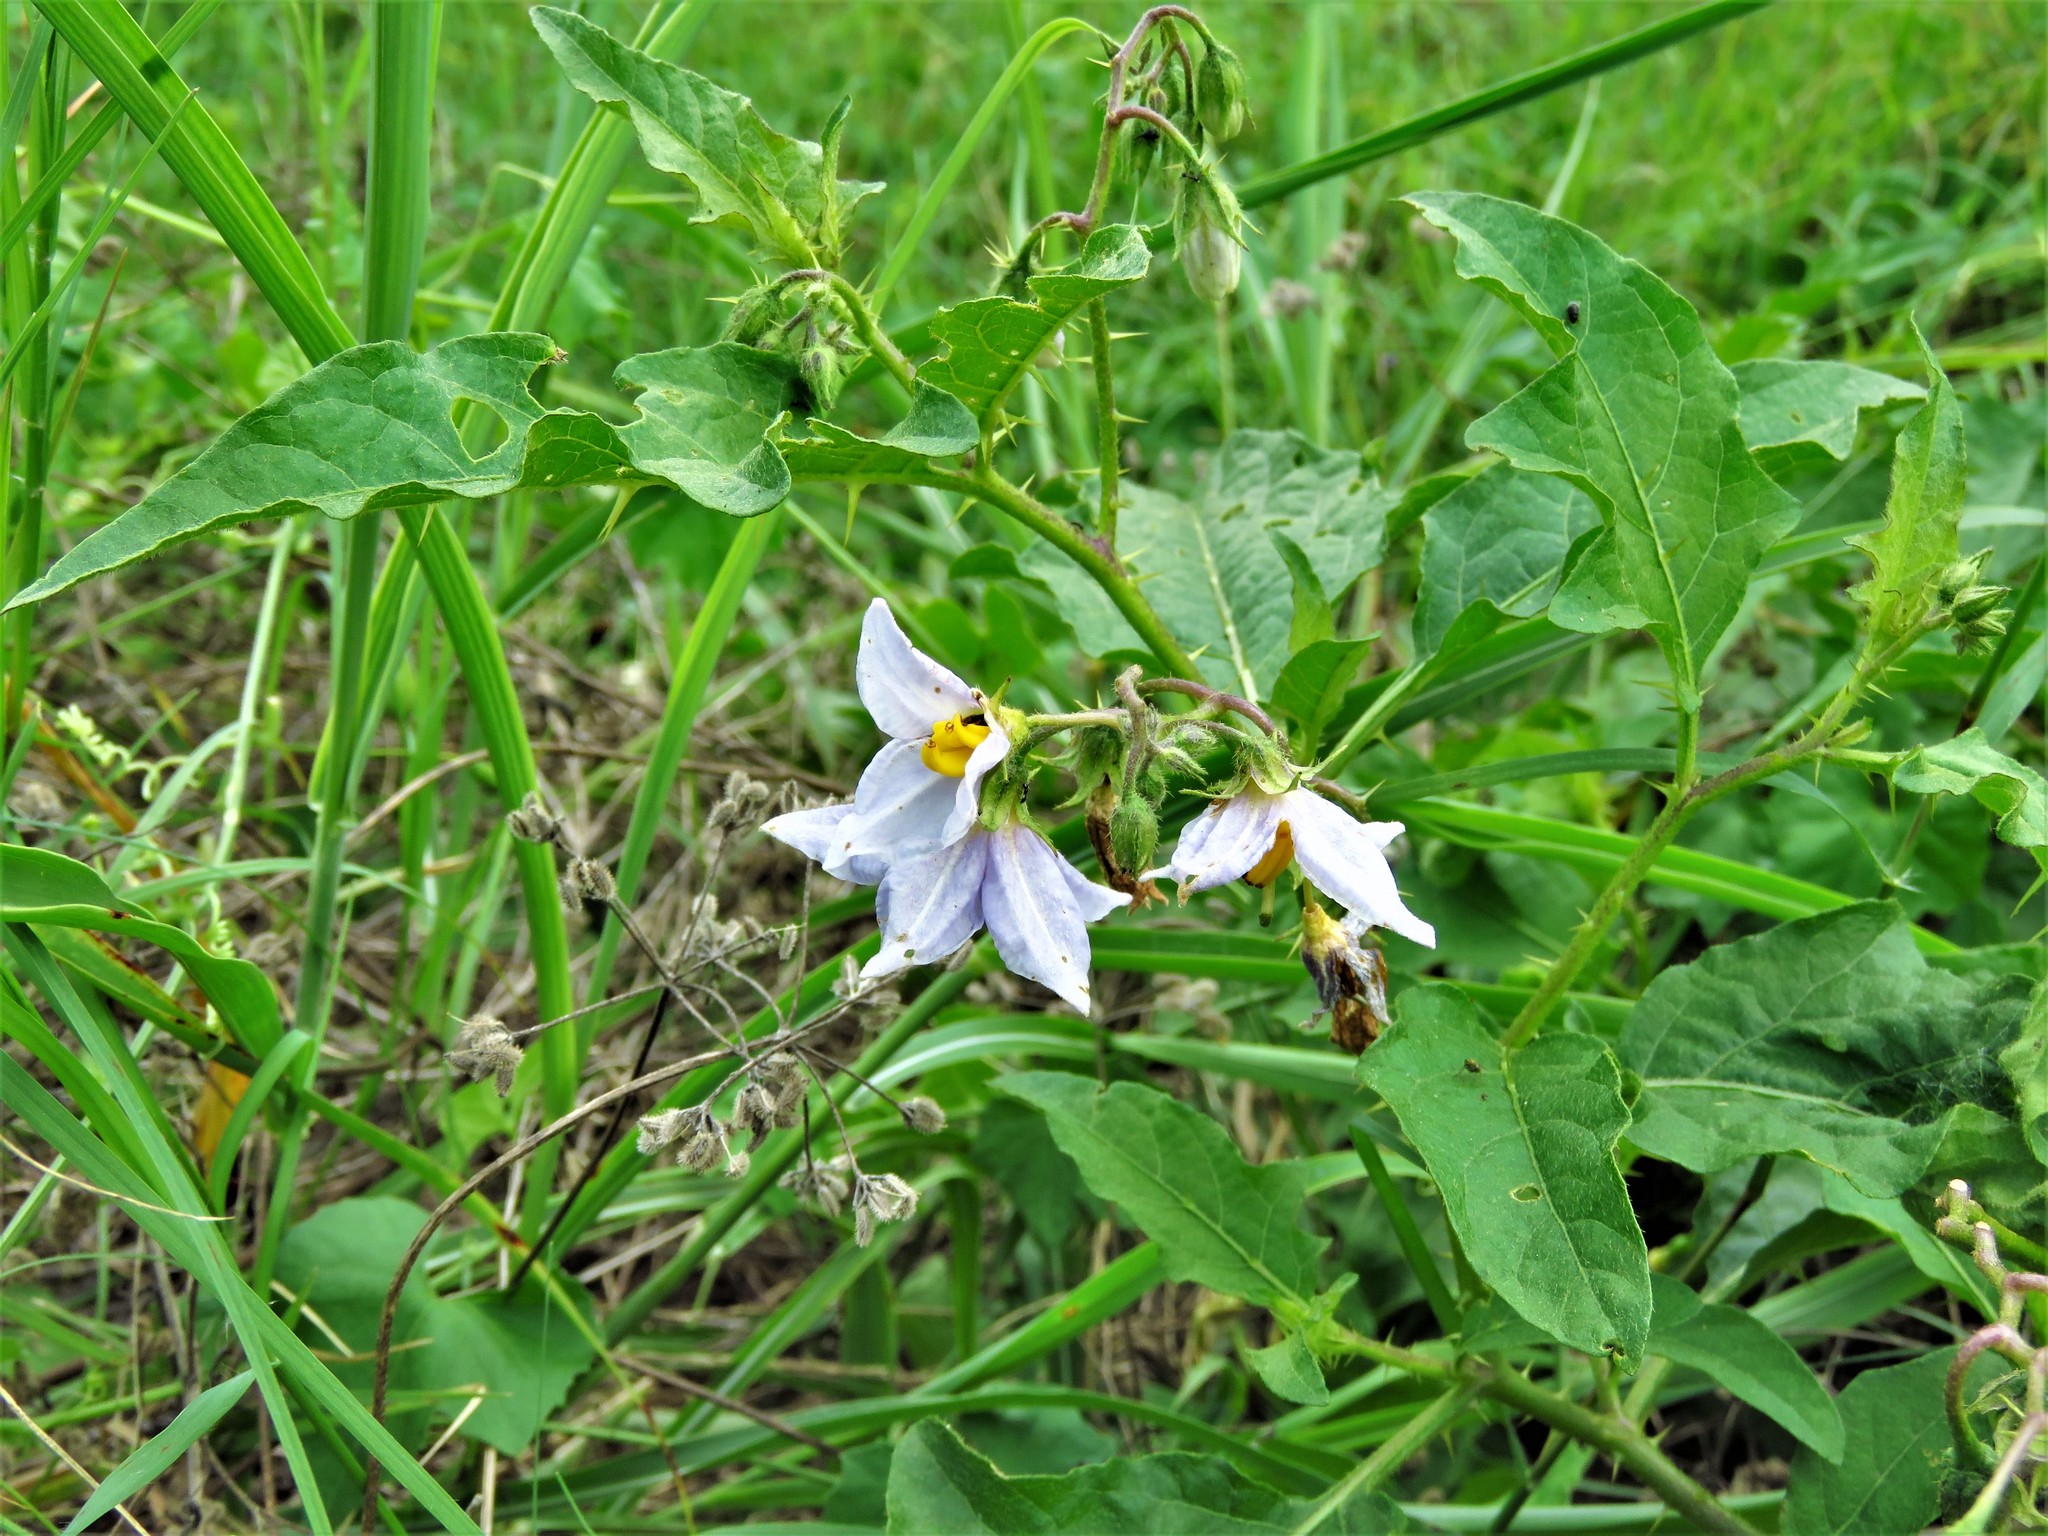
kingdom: Plantae
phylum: Tracheophyta
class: Magnoliopsida
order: Solanales
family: Solanaceae
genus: Solanum
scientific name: Solanum carolinense
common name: Horse-nettle
